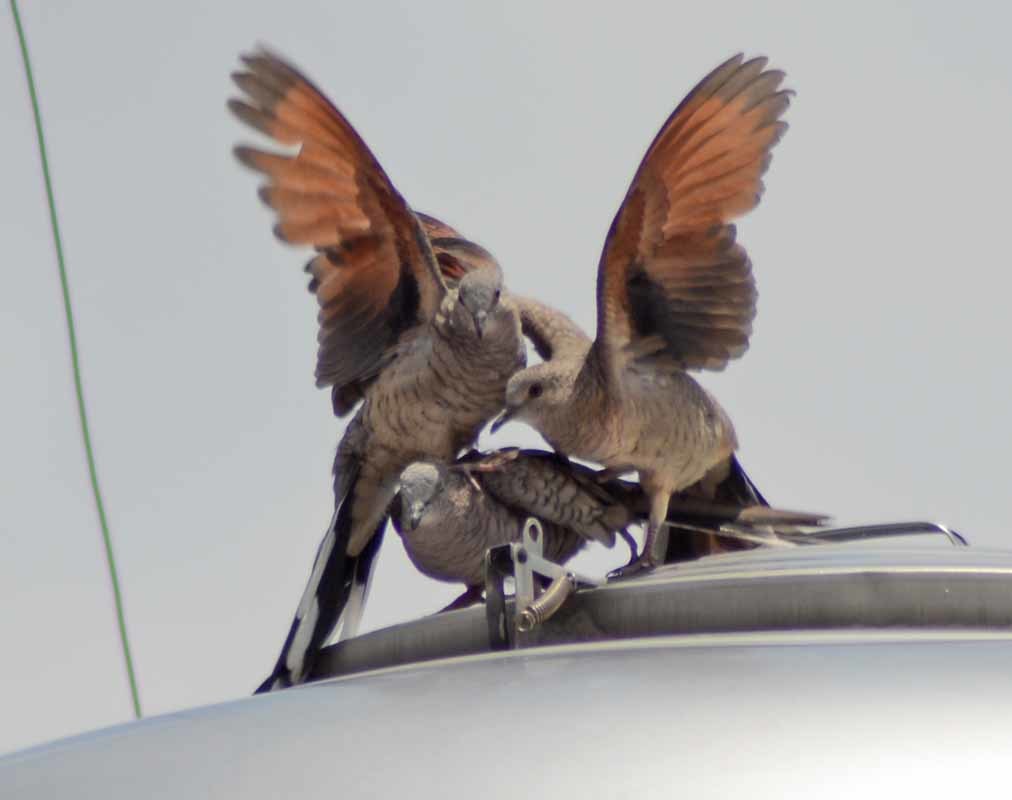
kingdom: Animalia
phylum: Chordata
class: Aves
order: Columbiformes
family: Columbidae
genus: Columbina
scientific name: Columbina inca
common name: Inca dove
